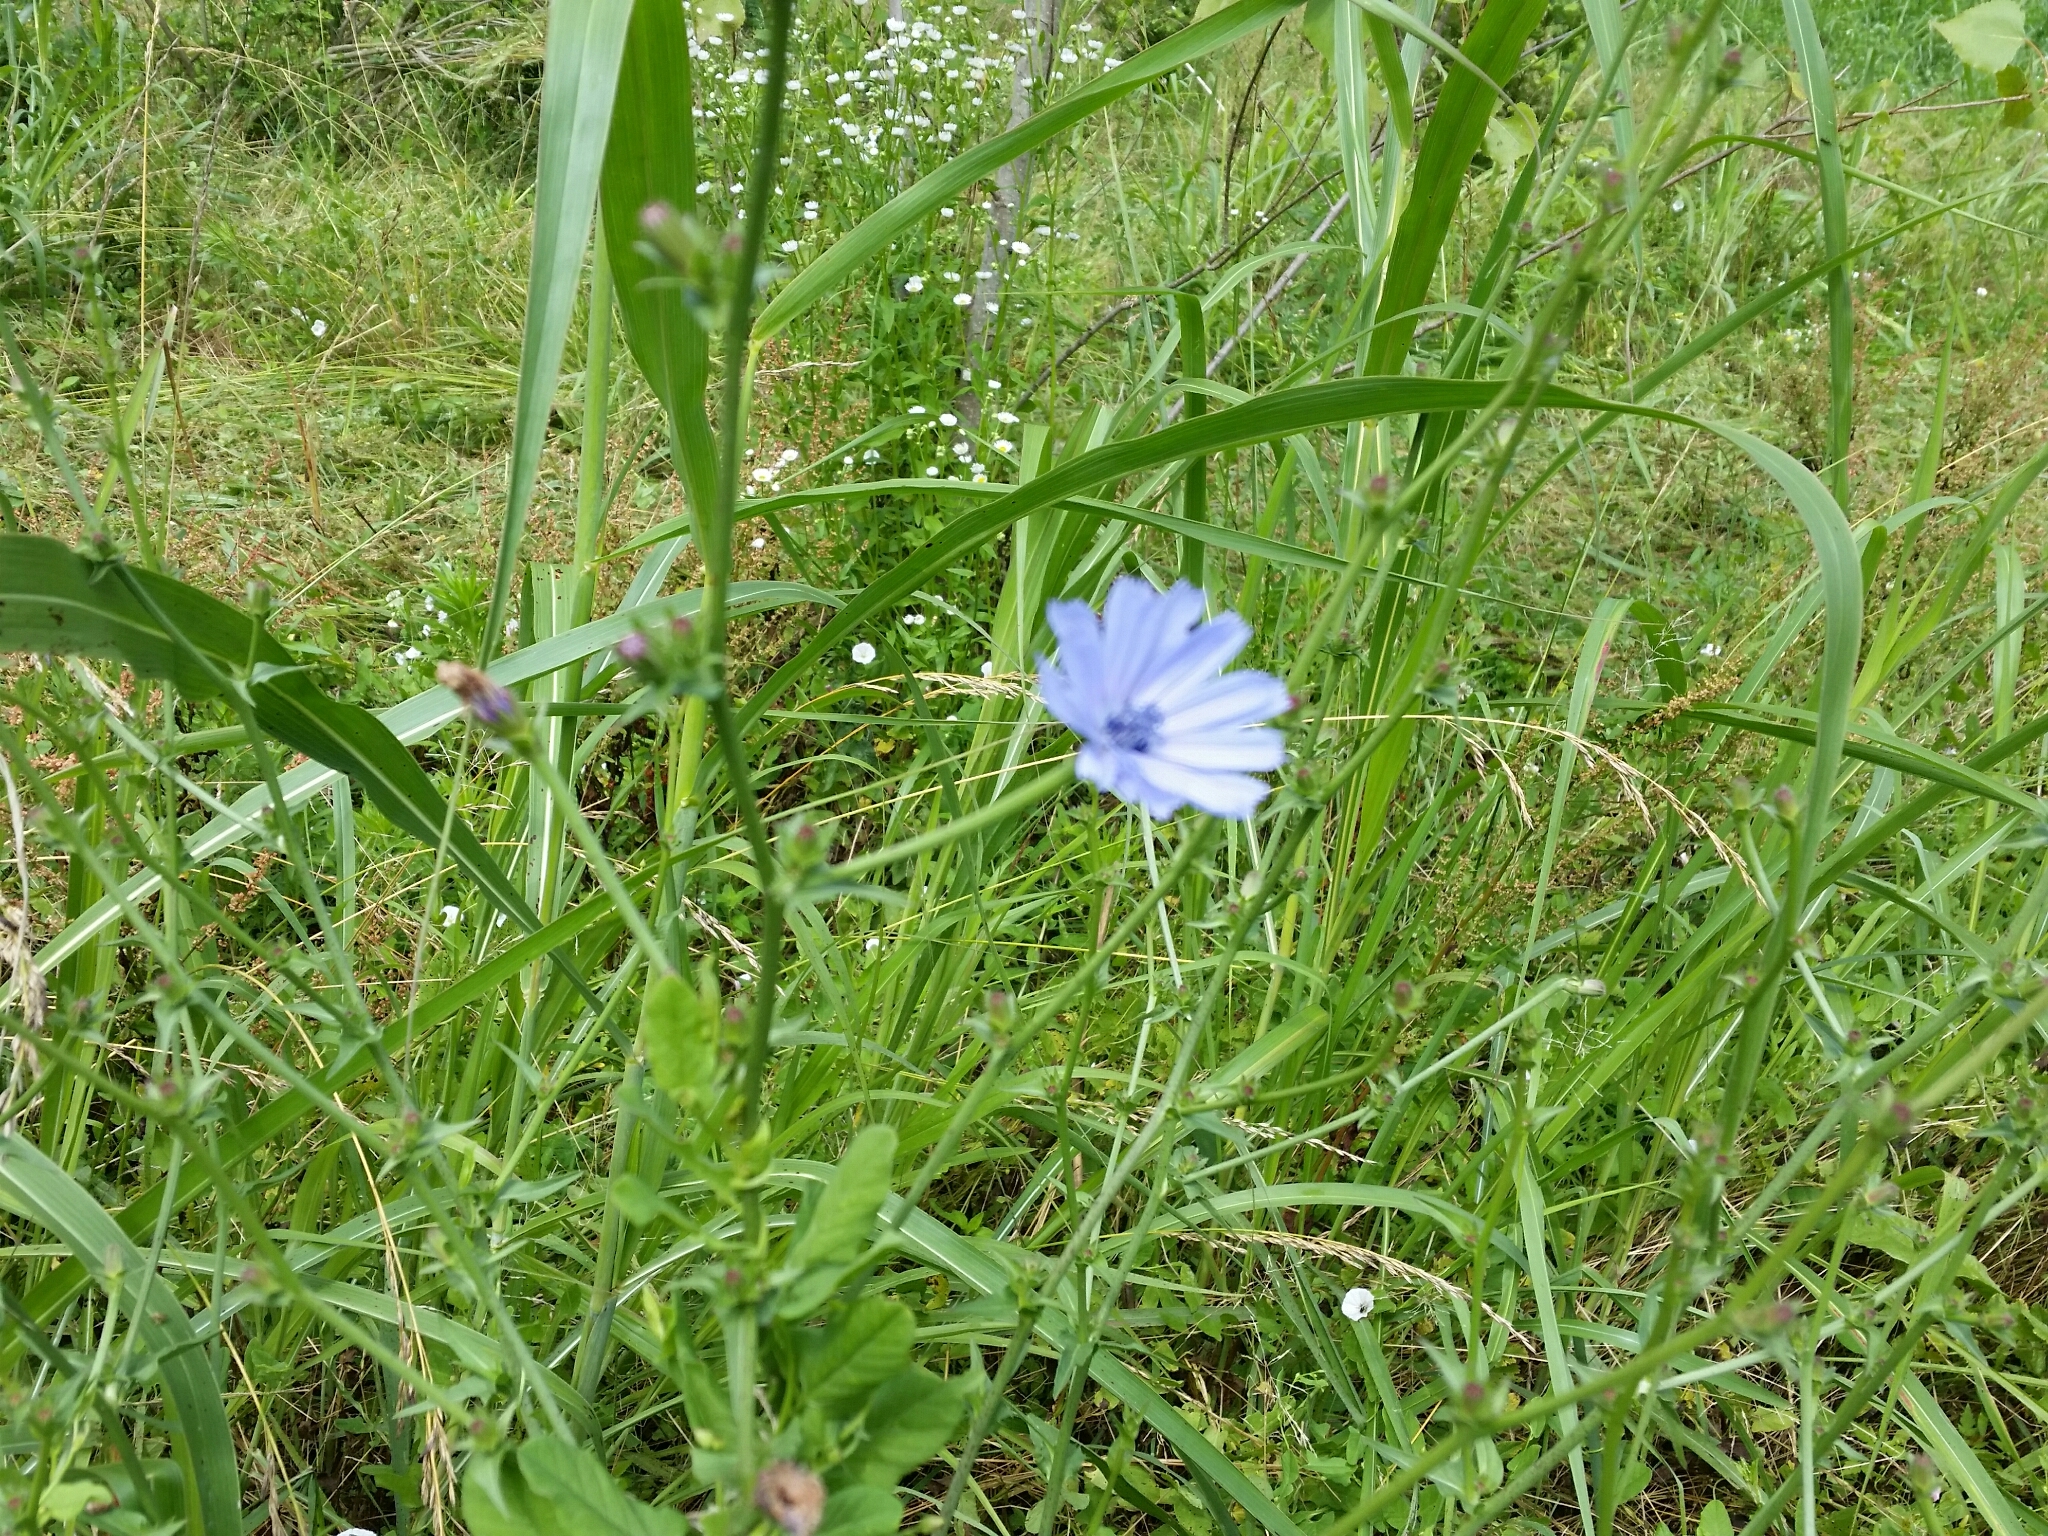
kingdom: Plantae
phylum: Tracheophyta
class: Magnoliopsida
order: Asterales
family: Asteraceae
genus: Cichorium
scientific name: Cichorium intybus
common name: Chicory
